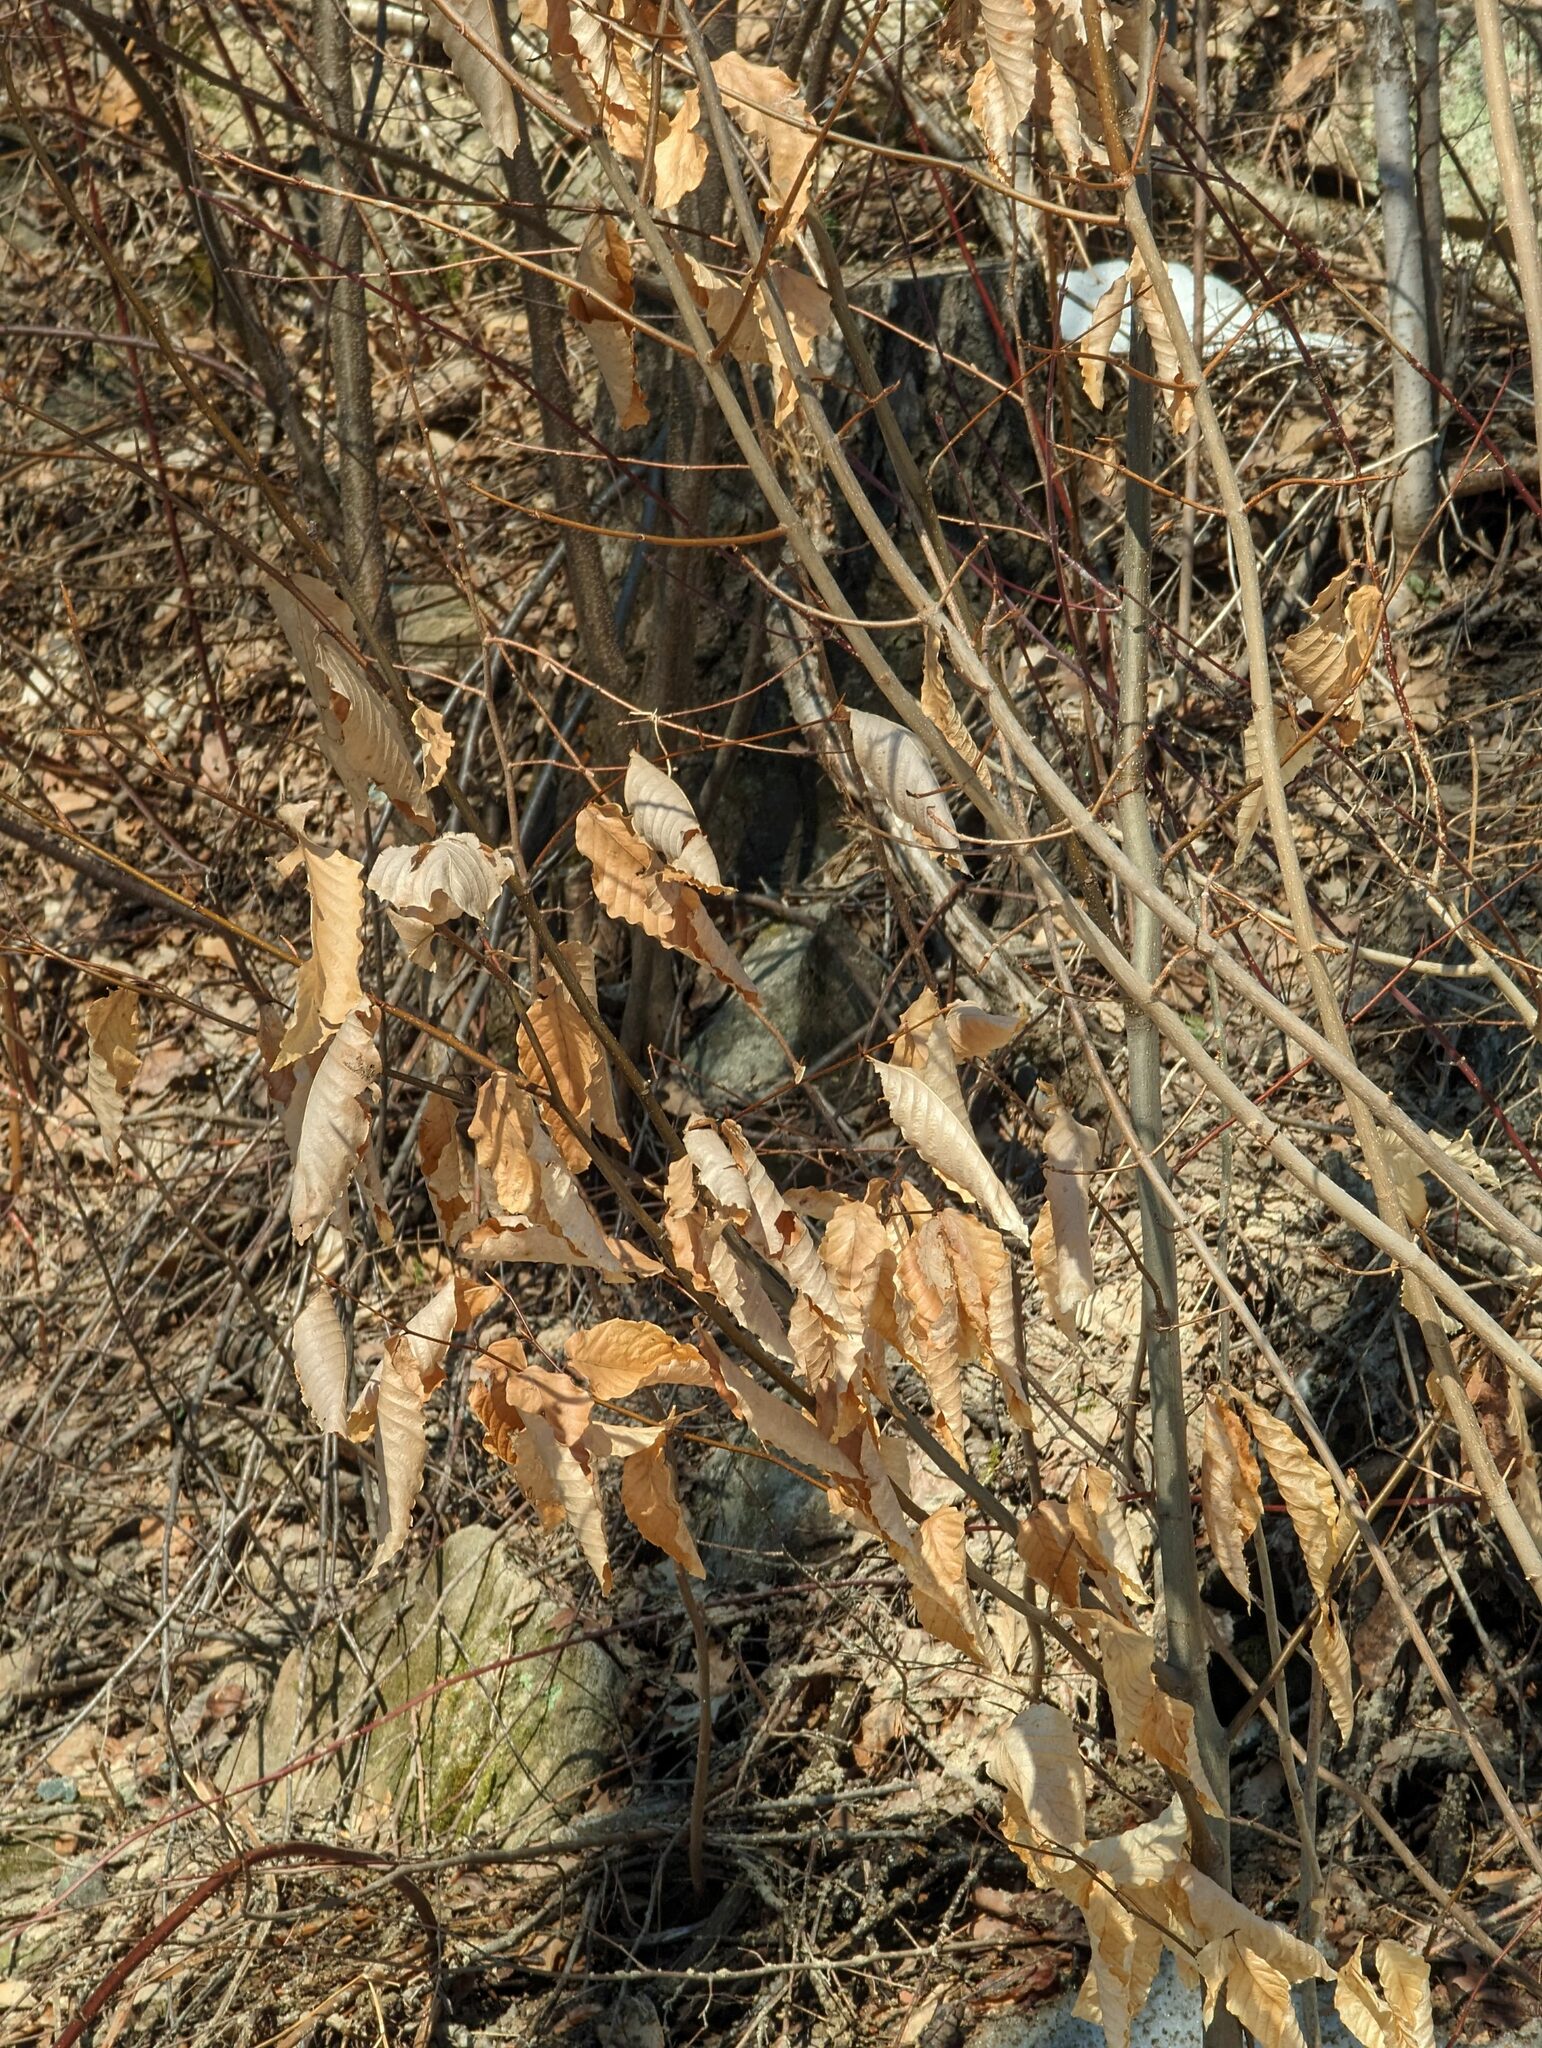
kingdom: Plantae
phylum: Tracheophyta
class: Magnoliopsida
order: Fagales
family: Fagaceae
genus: Fagus
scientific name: Fagus grandifolia
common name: American beech
